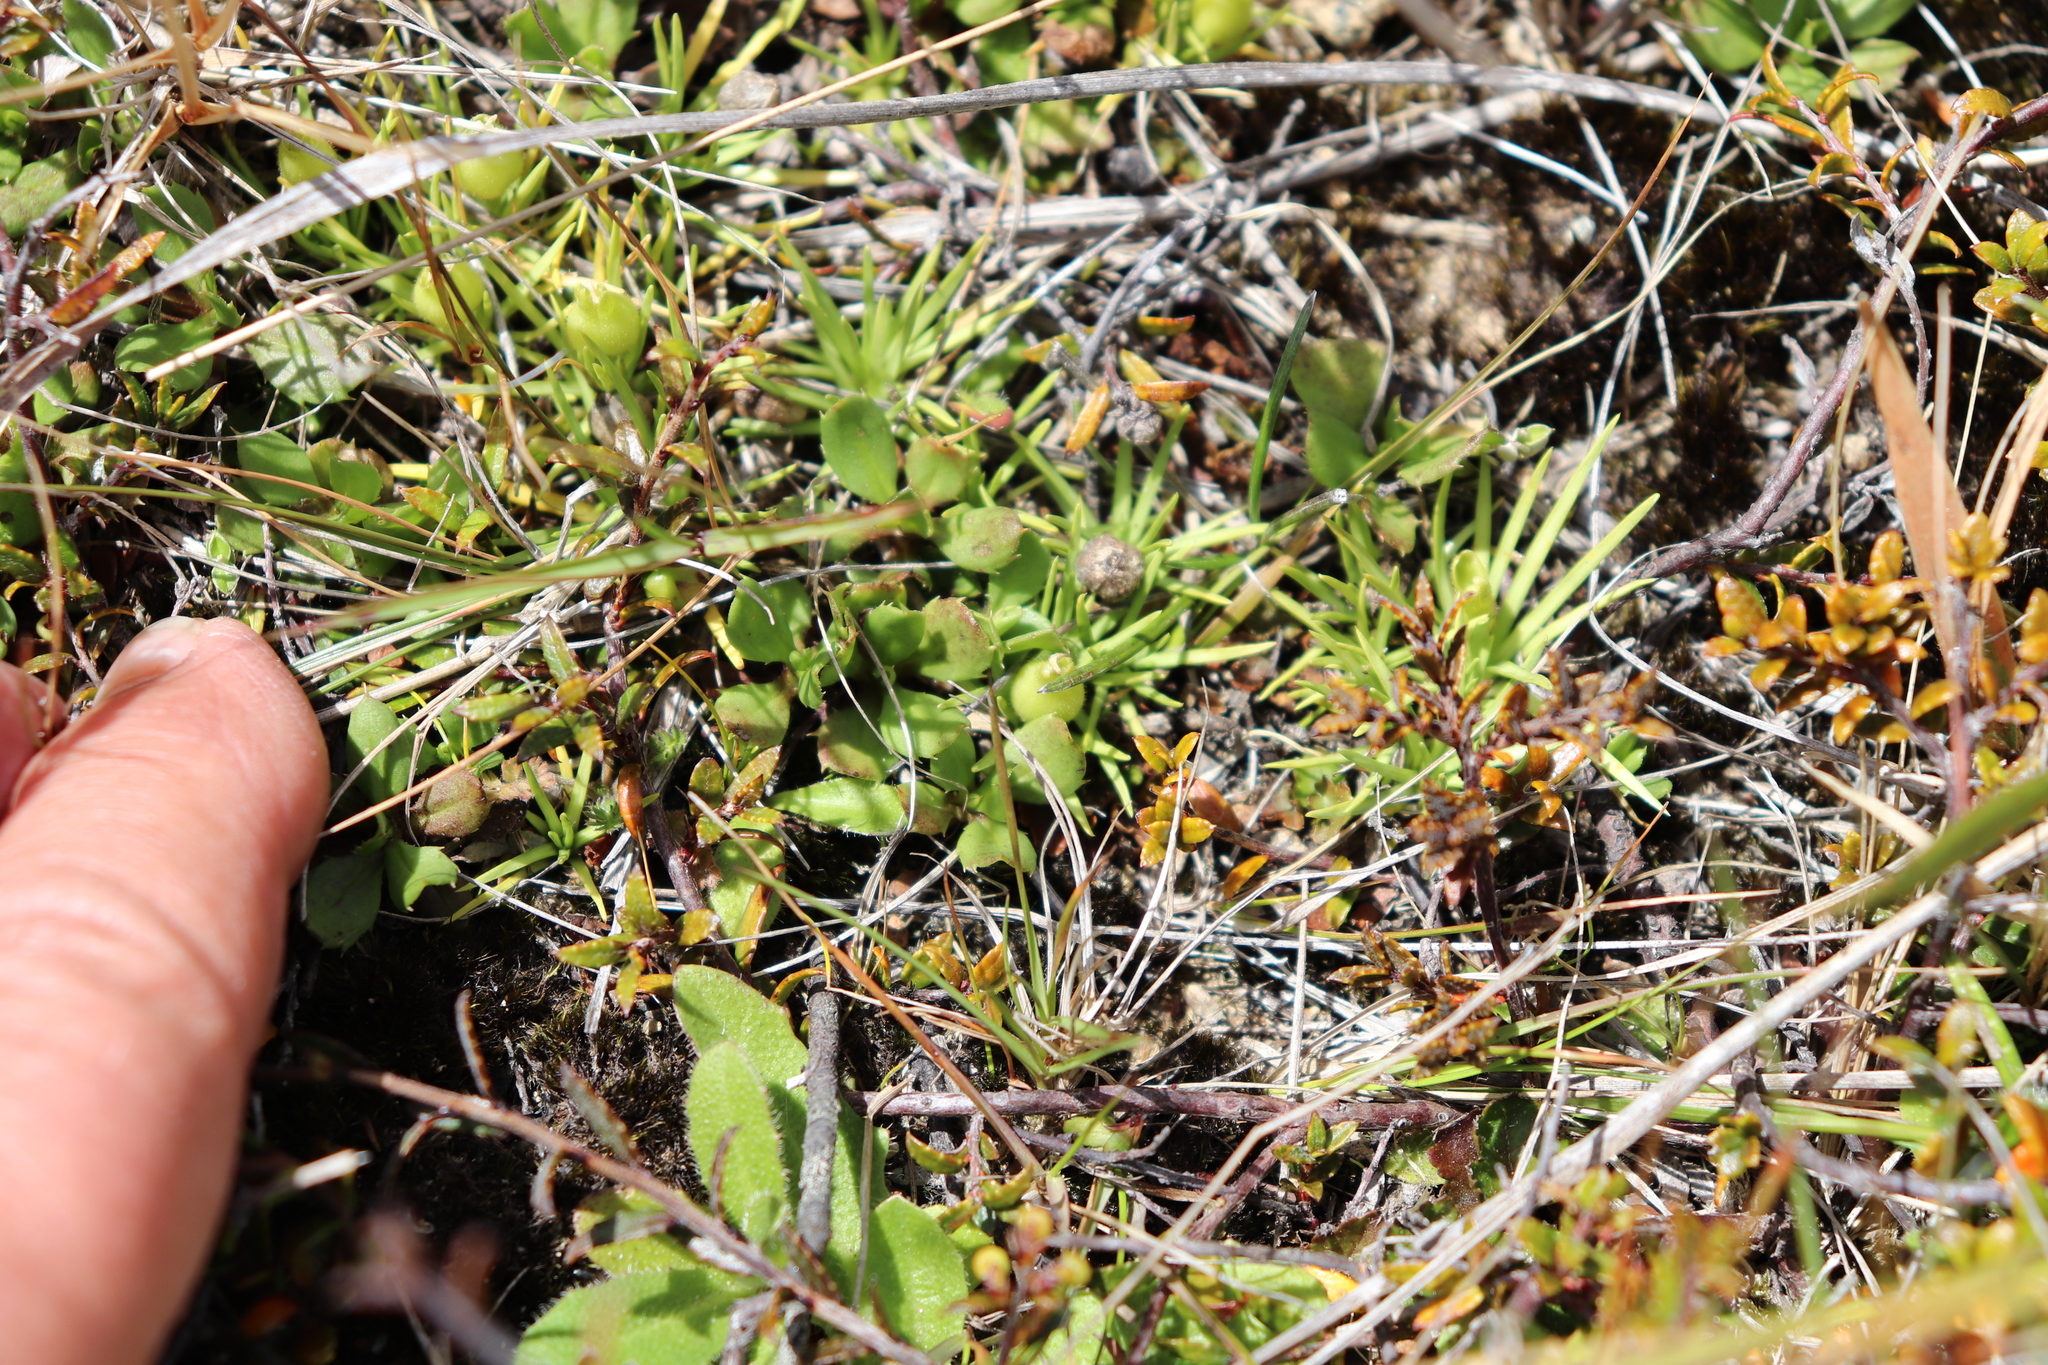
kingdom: Plantae
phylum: Tracheophyta
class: Magnoliopsida
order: Asterales
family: Stylidiaceae
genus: Oreostylidium
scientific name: Oreostylidium subulatum
